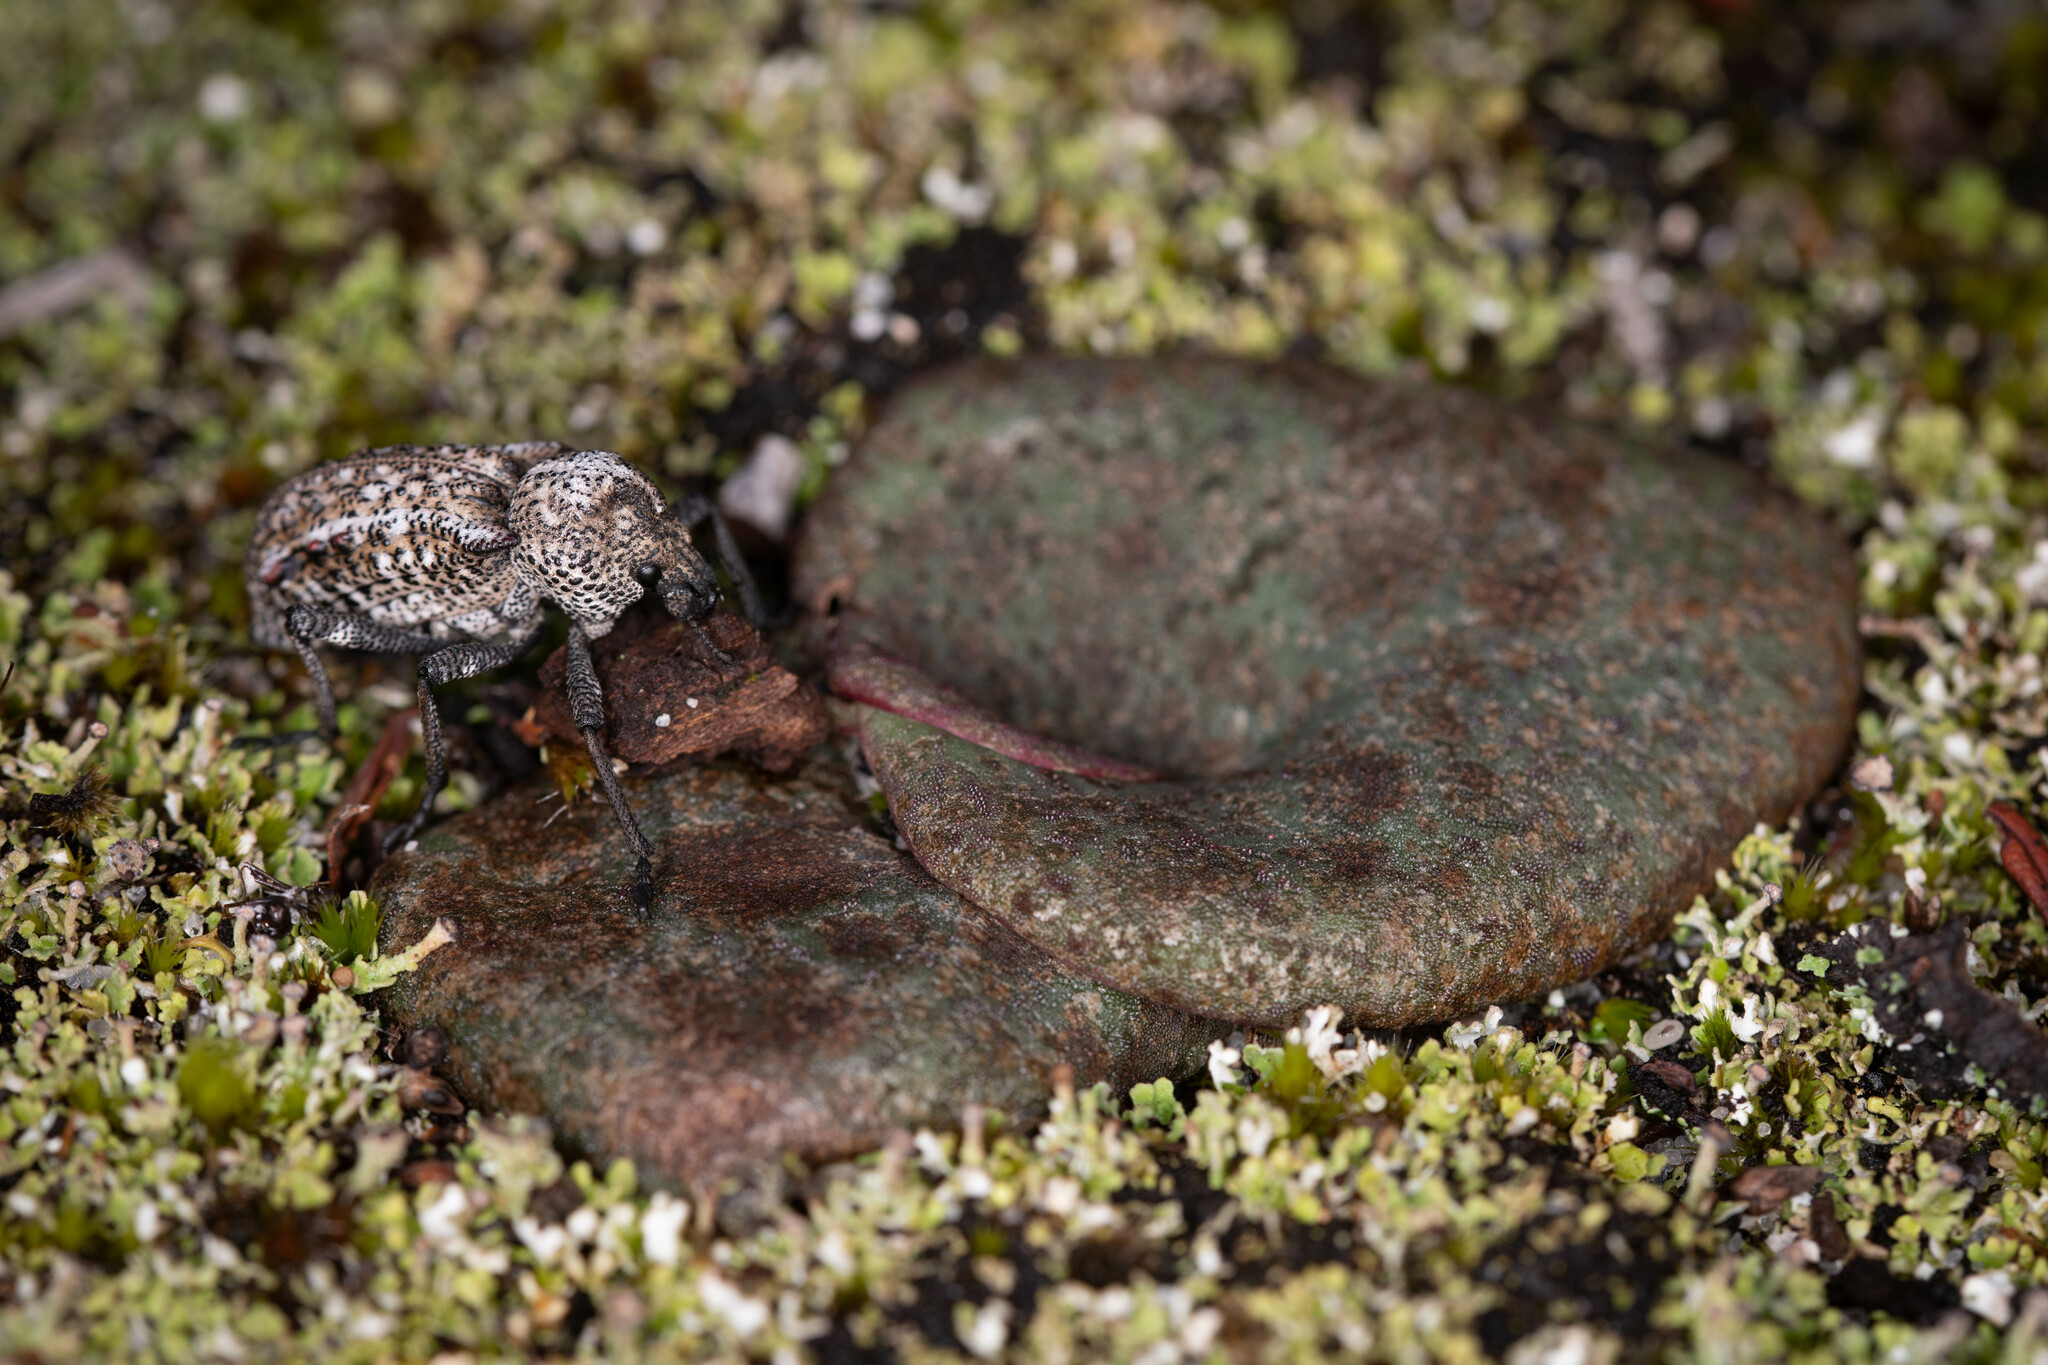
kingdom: Animalia
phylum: Arthropoda
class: Insecta
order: Coleoptera
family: Curculionidae
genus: Euomus
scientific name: Euomus scorpio
